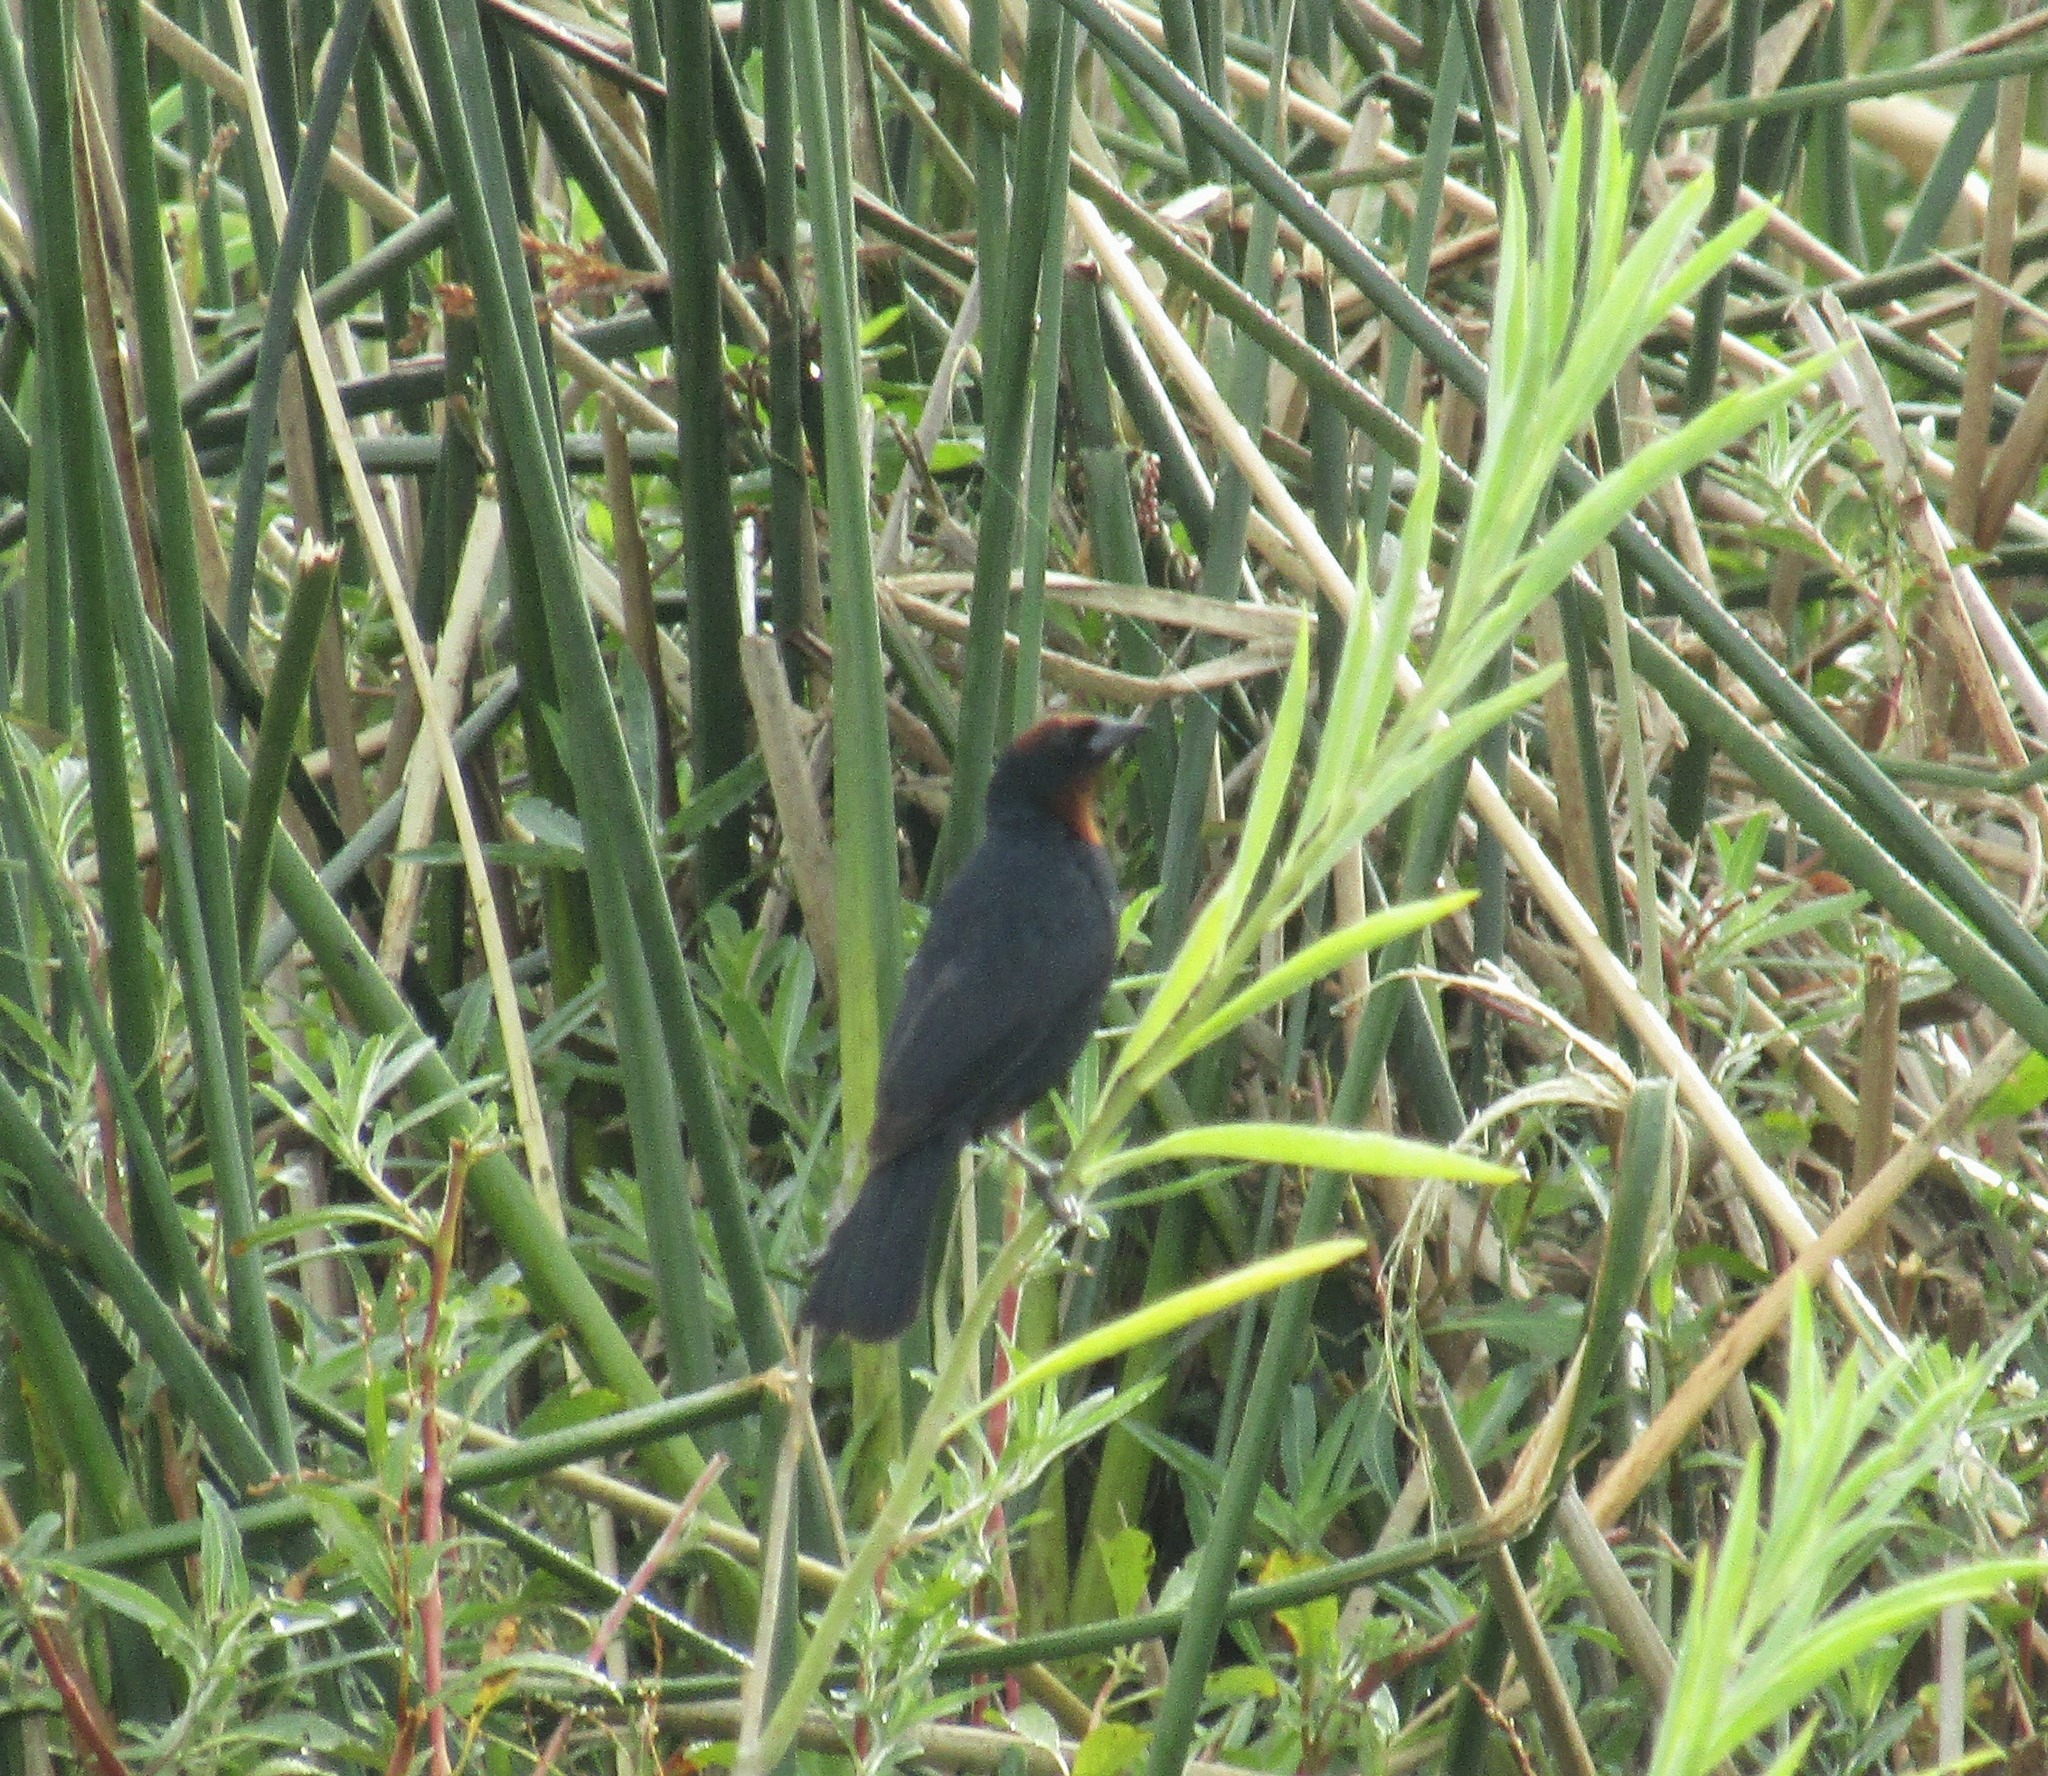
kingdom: Animalia
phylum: Chordata
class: Aves
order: Passeriformes
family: Icteridae
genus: Chrysomus
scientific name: Chrysomus ruficapillus
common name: Chestnut-capped blackbird
